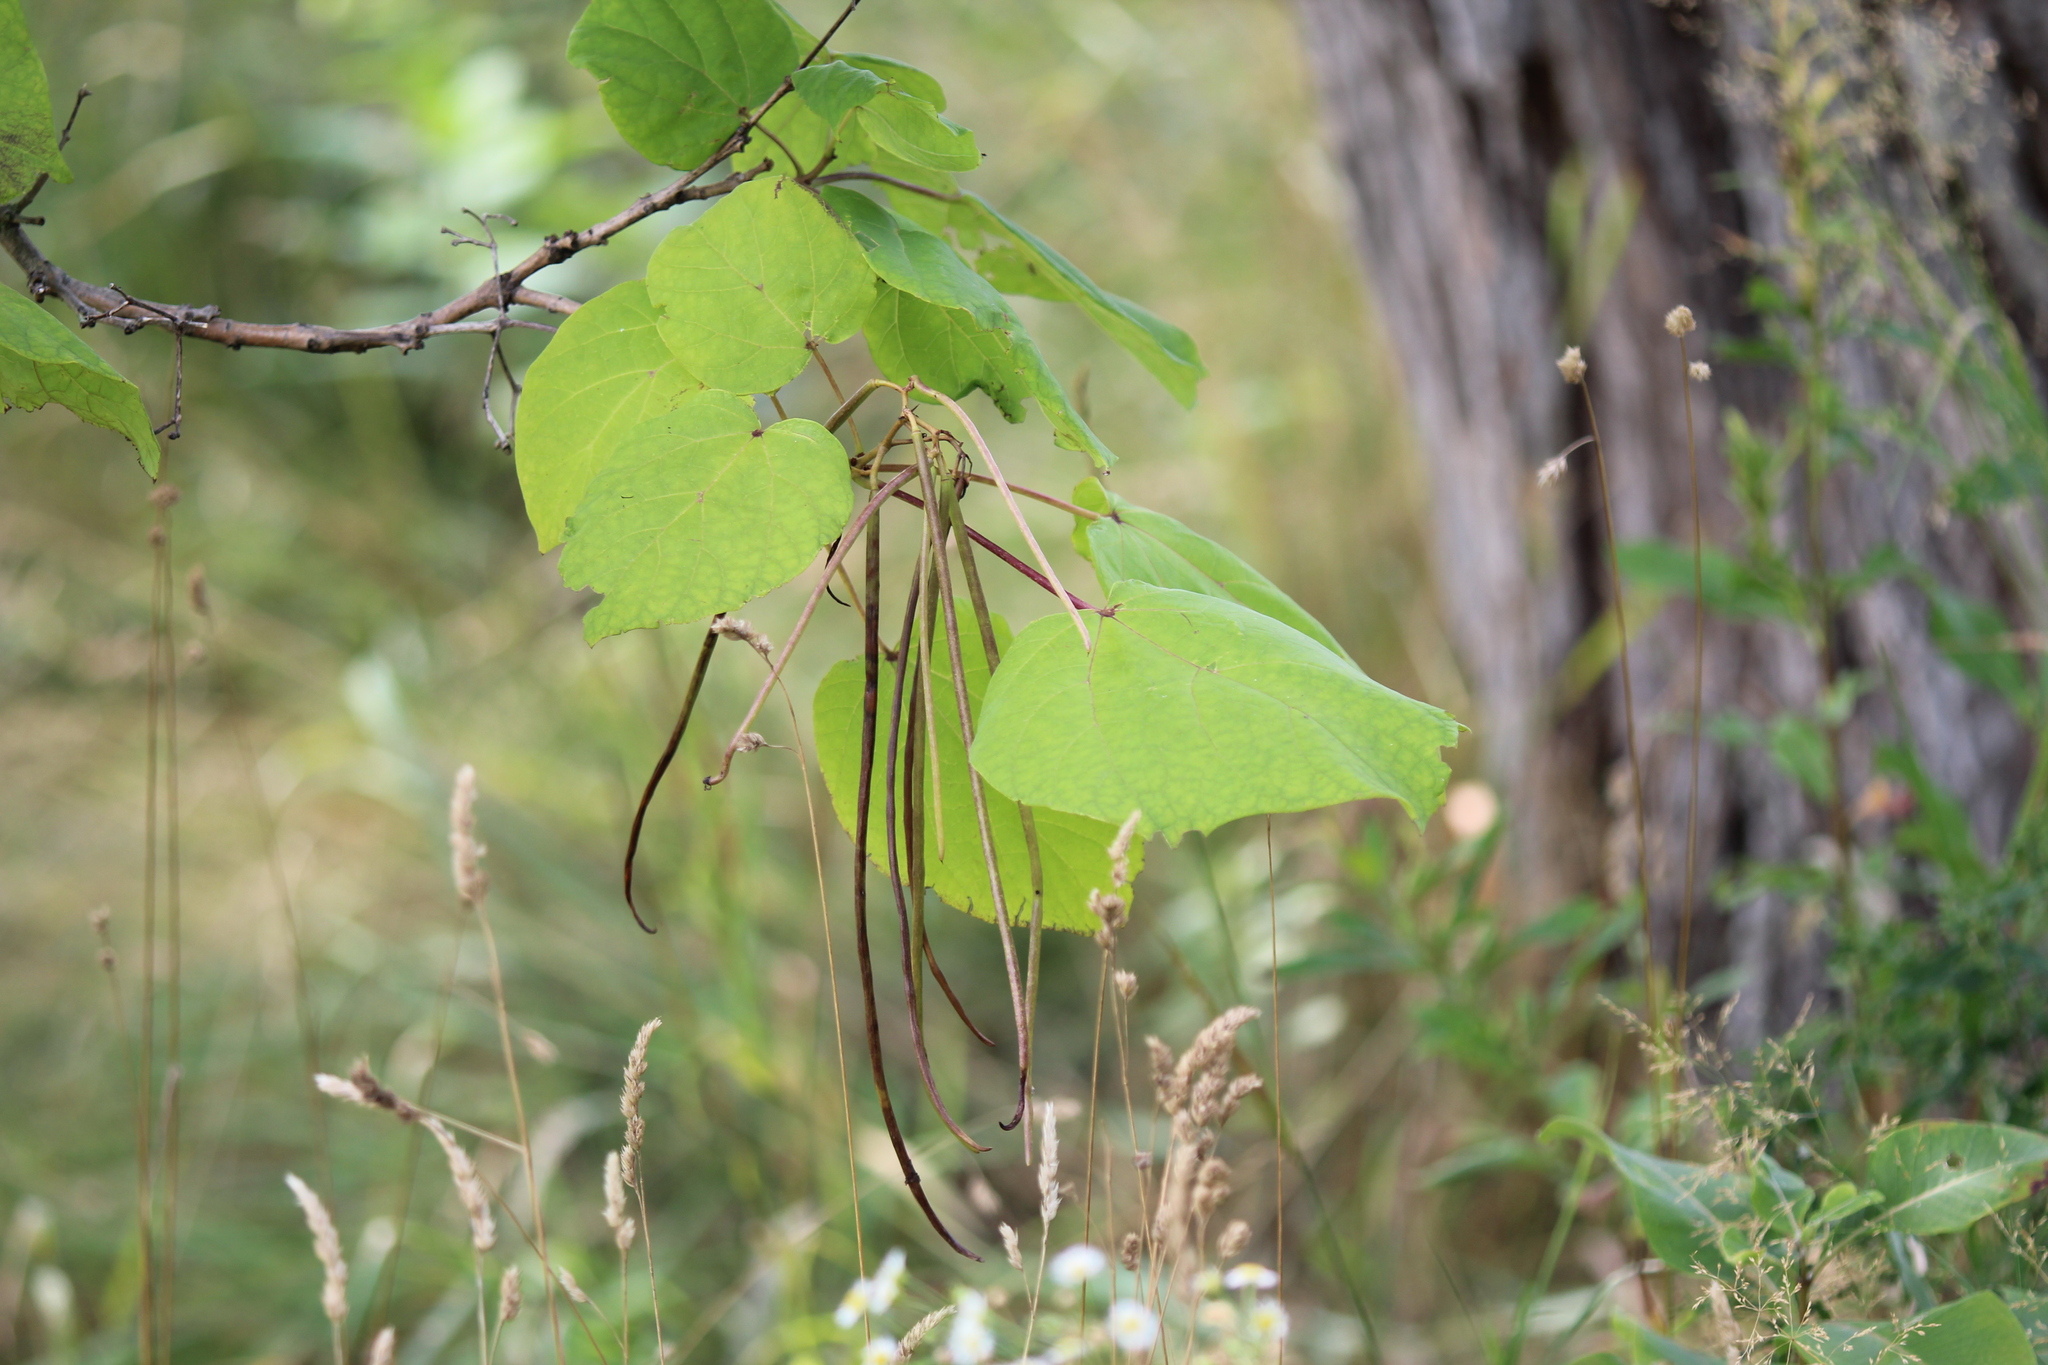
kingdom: Plantae
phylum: Tracheophyta
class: Magnoliopsida
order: Lamiales
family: Bignoniaceae
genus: Catalpa
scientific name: Catalpa speciosa
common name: Northern catalpa
